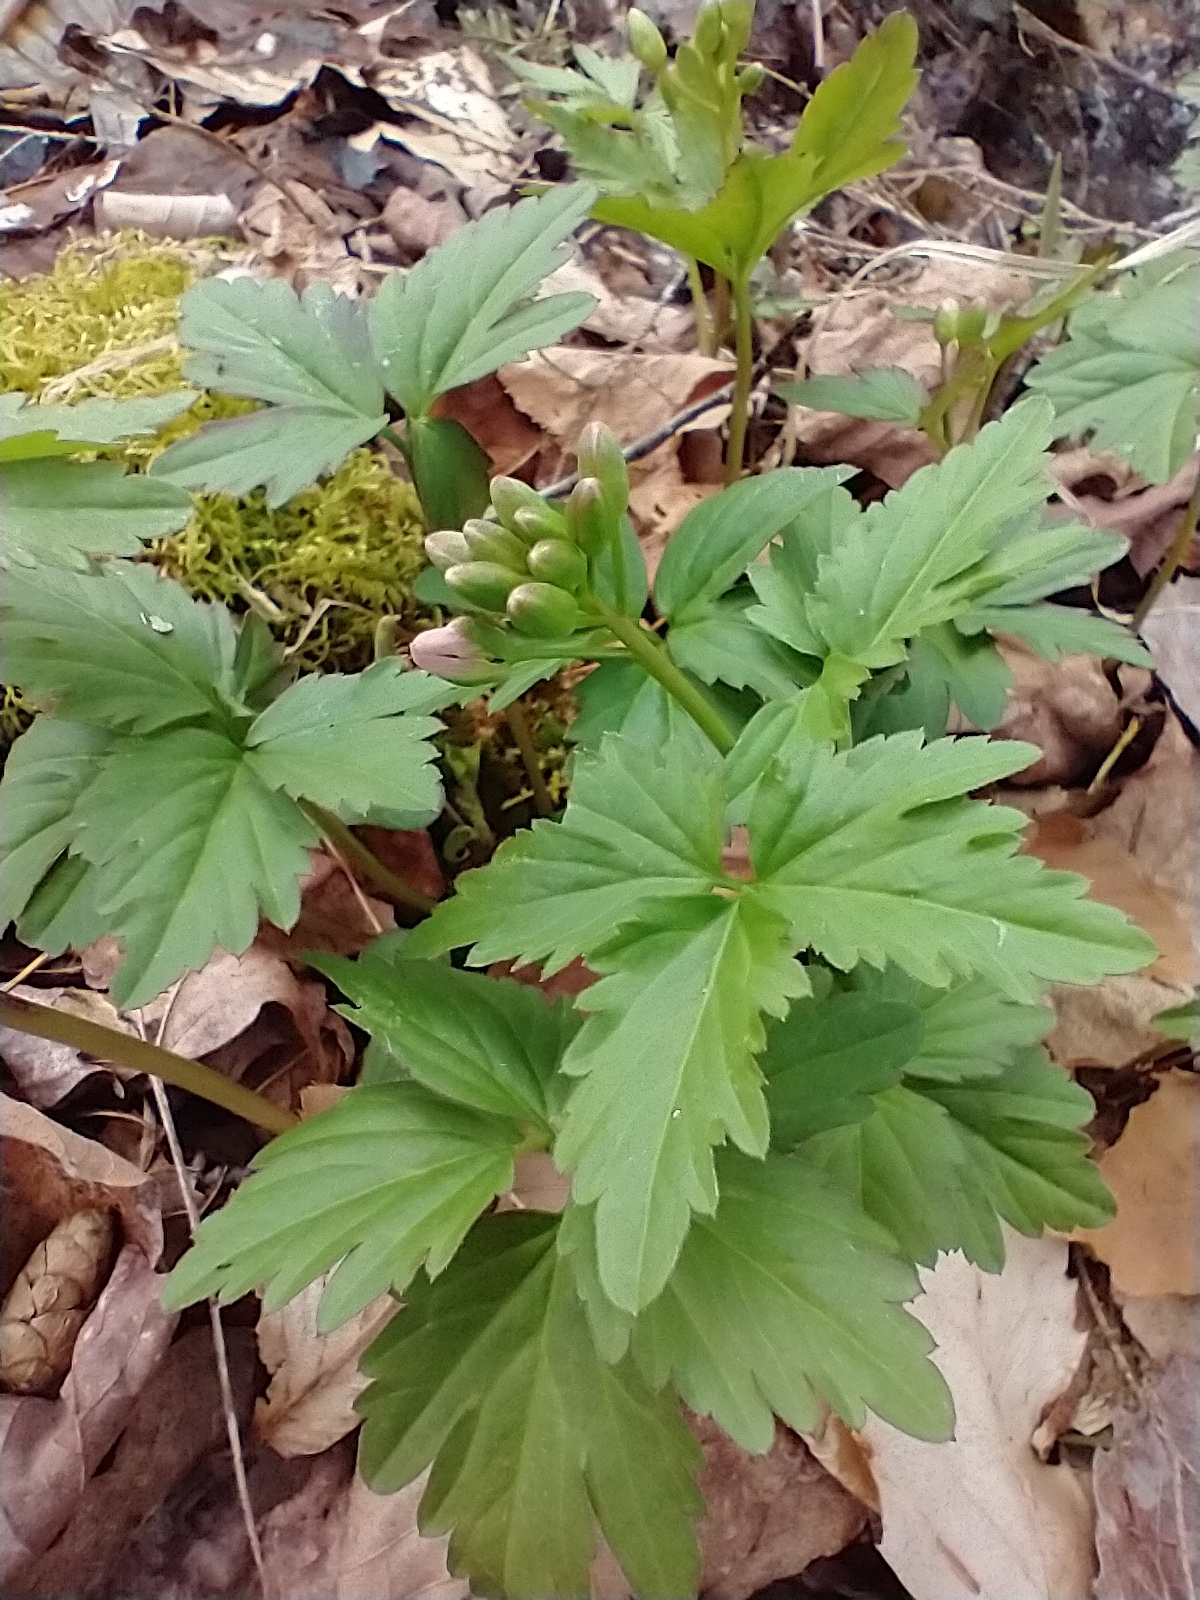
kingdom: Plantae
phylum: Tracheophyta
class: Magnoliopsida
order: Brassicales
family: Brassicaceae
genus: Cardamine
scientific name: Cardamine diphylla
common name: Broad-leaved toothwort
